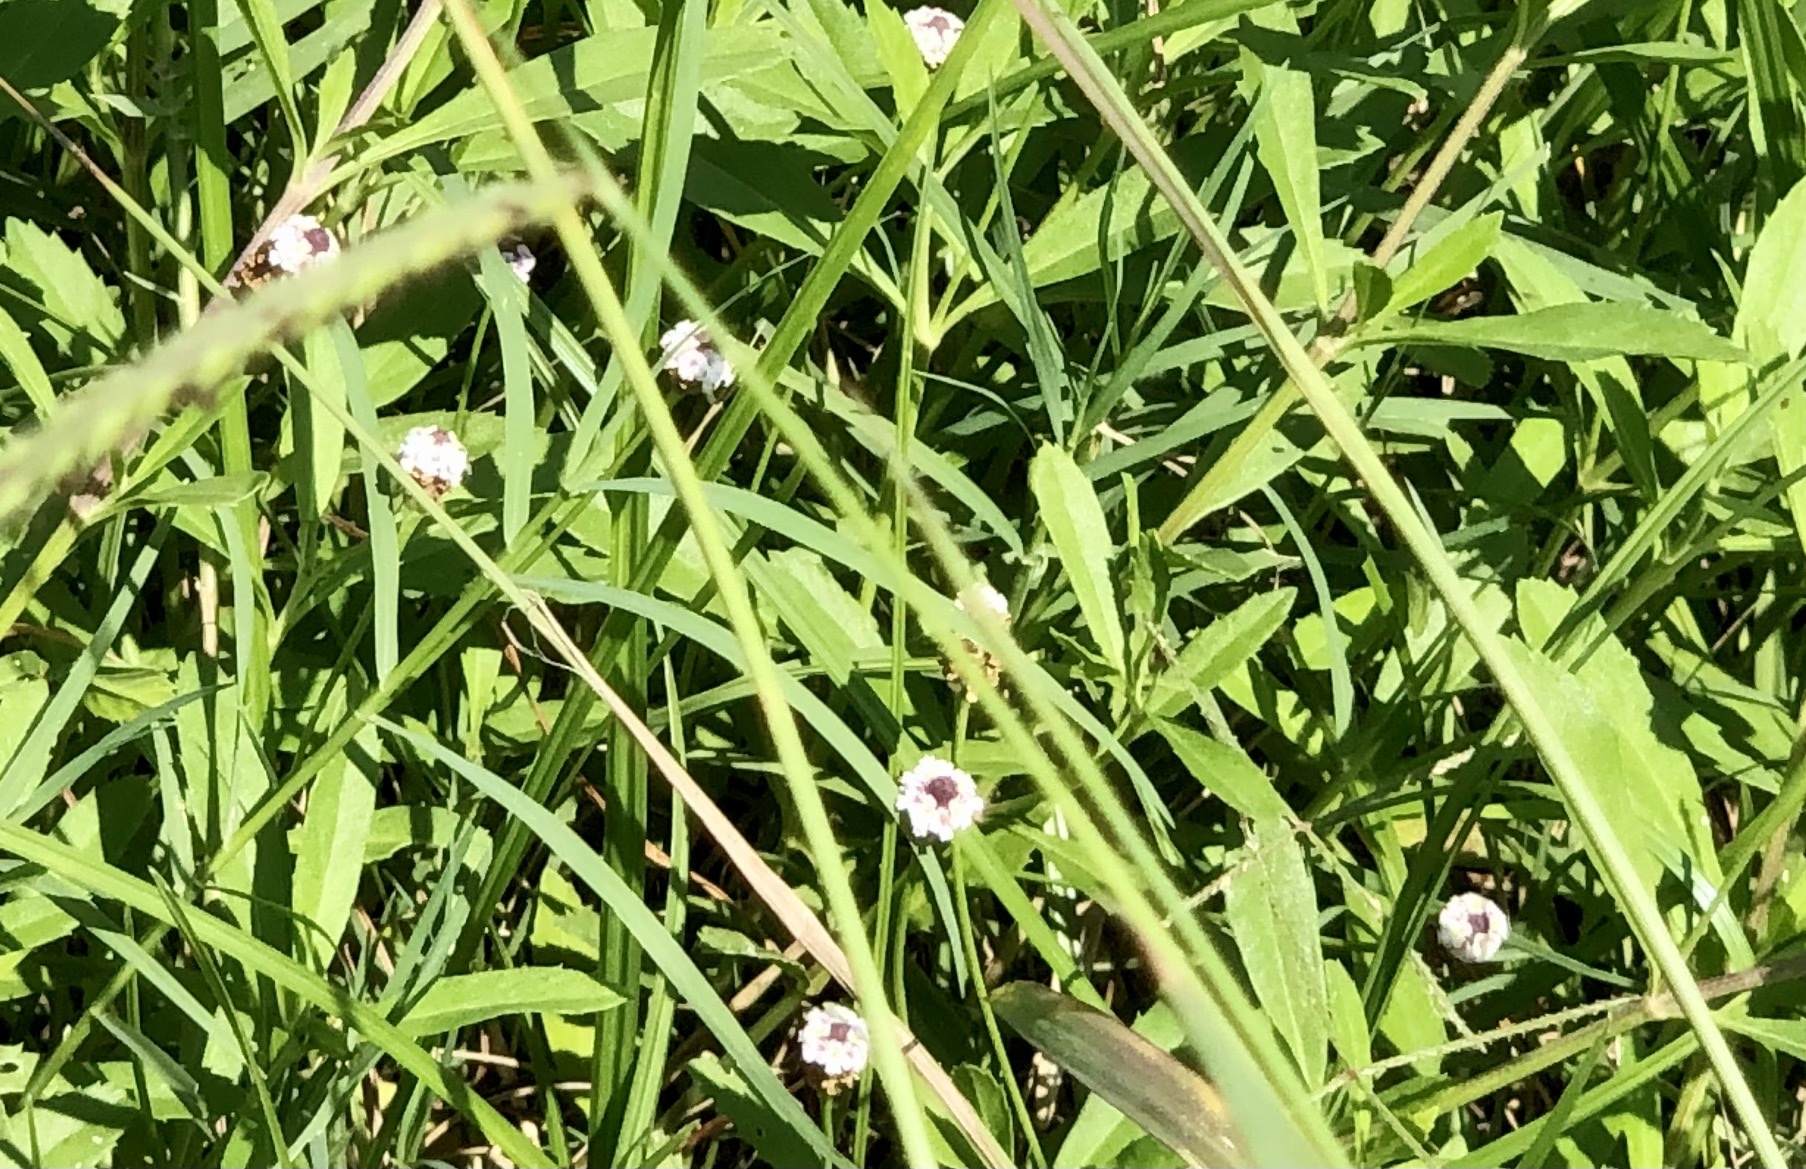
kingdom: Plantae
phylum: Tracheophyta
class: Magnoliopsida
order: Lamiales
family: Verbenaceae
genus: Phyla
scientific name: Phyla nodiflora
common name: Frogfruit
